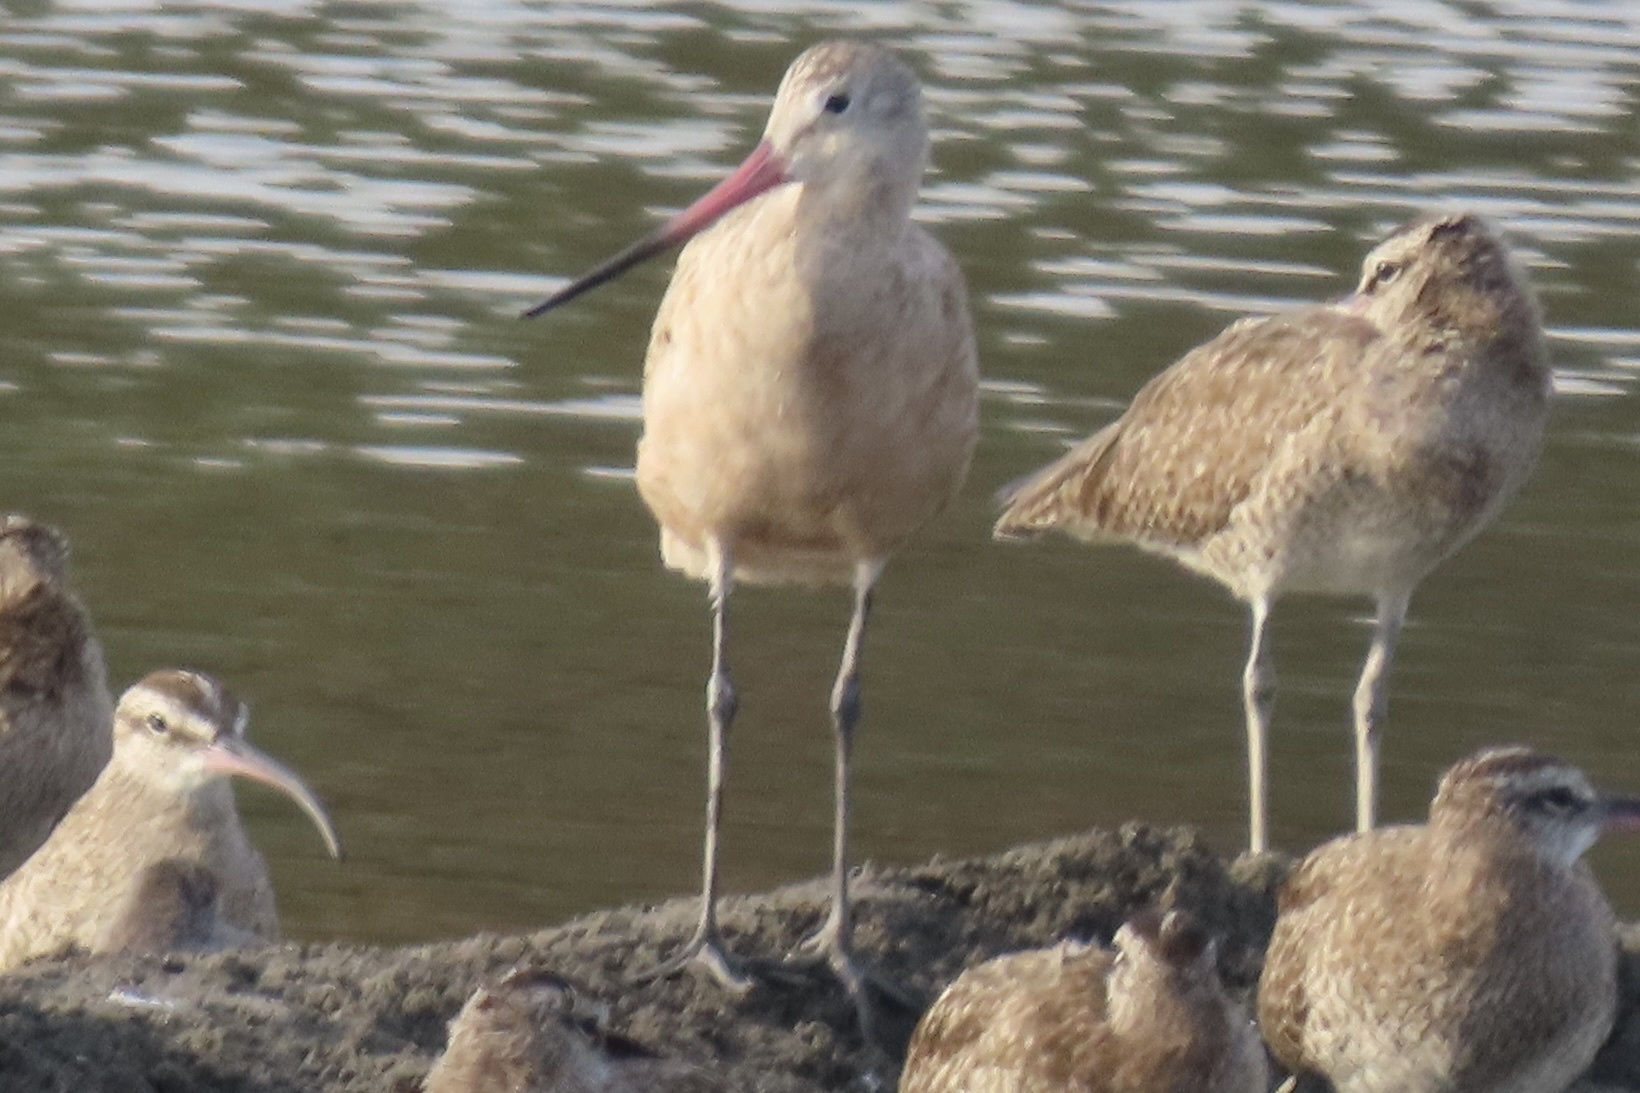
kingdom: Animalia
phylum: Chordata
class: Aves
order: Charadriiformes
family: Scolopacidae
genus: Limosa
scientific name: Limosa fedoa
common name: Marbled godwit
